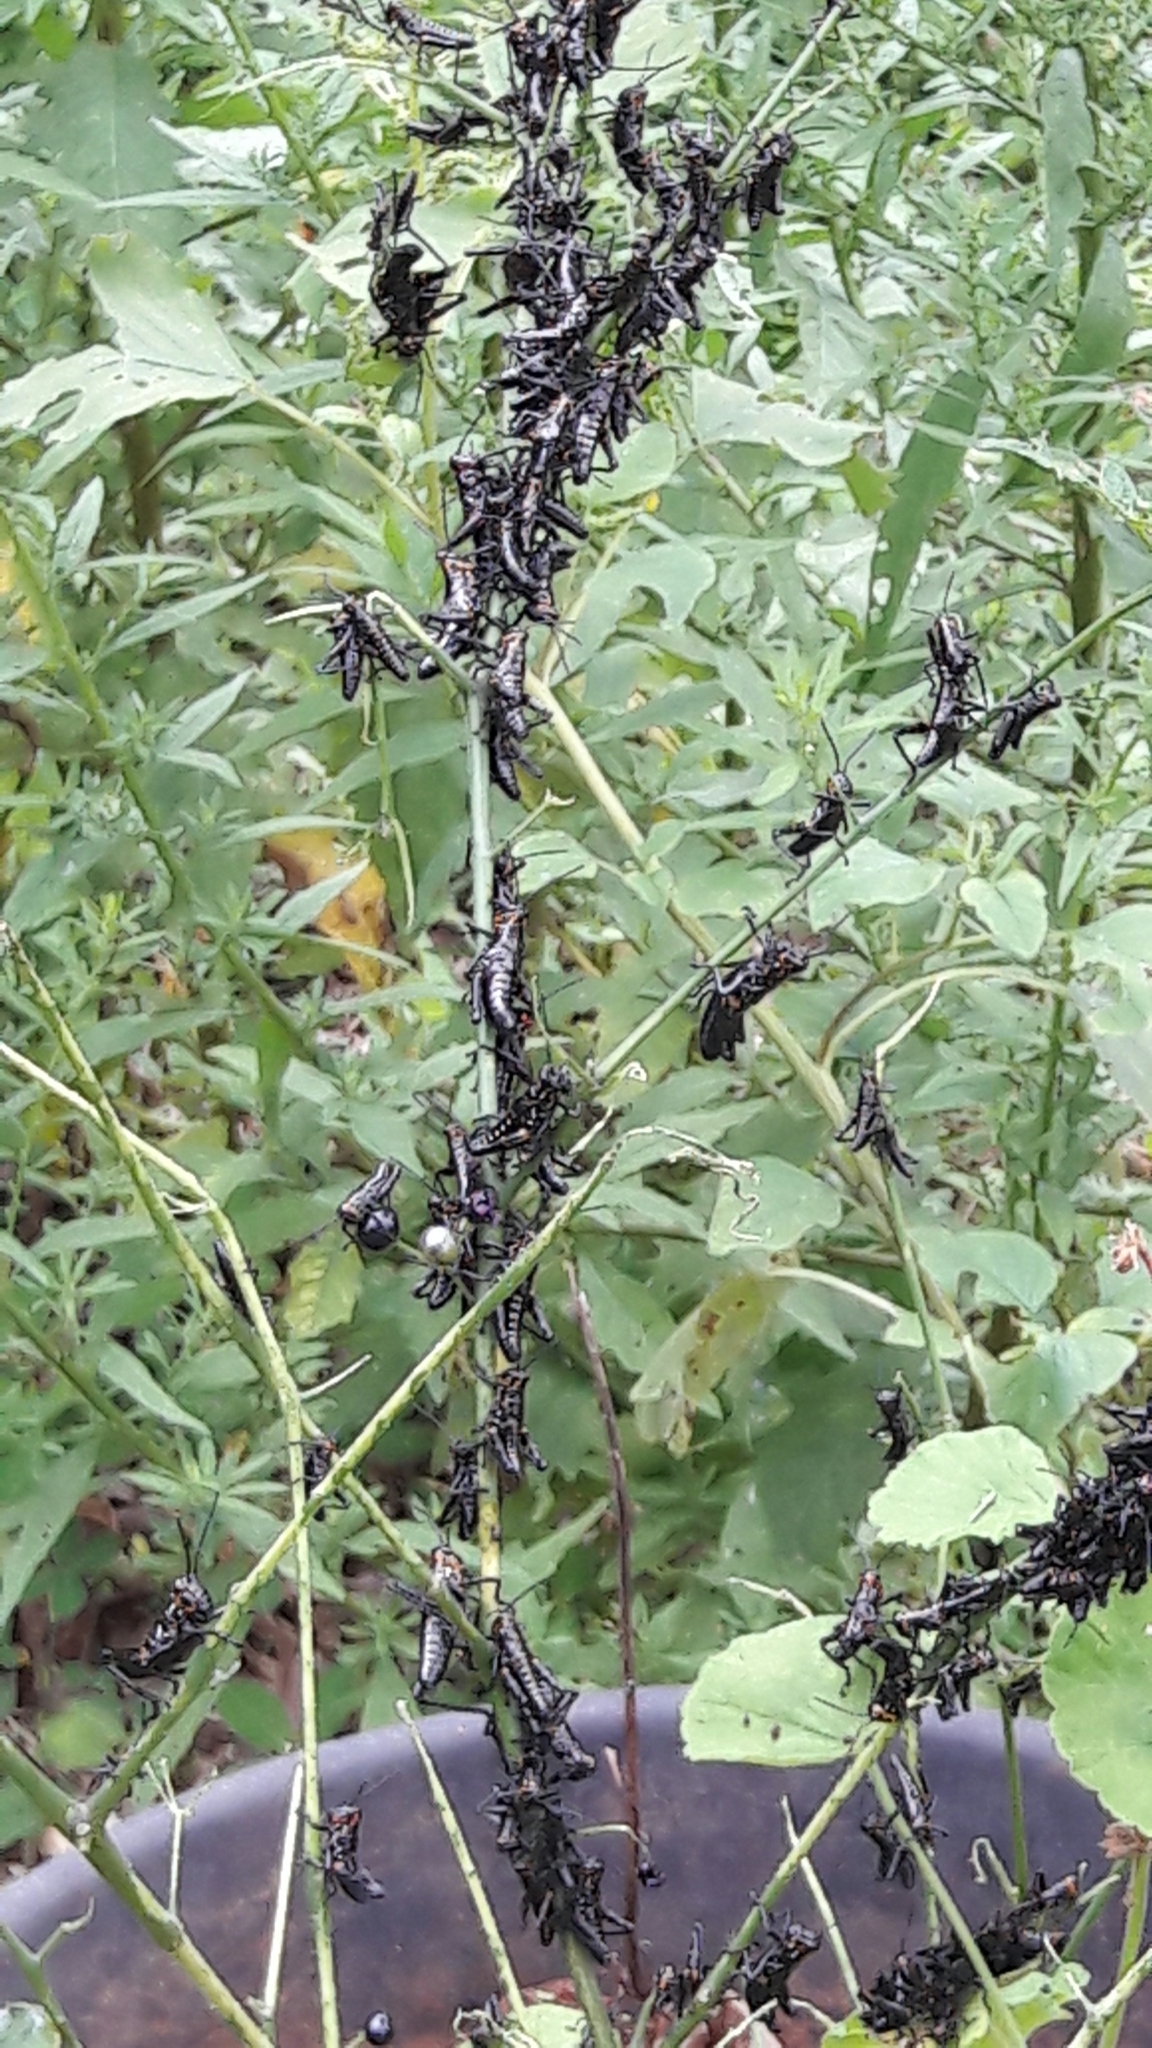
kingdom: Animalia
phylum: Arthropoda
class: Insecta
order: Orthoptera
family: Romaleidae
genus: Chromacris
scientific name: Chromacris speciosa
